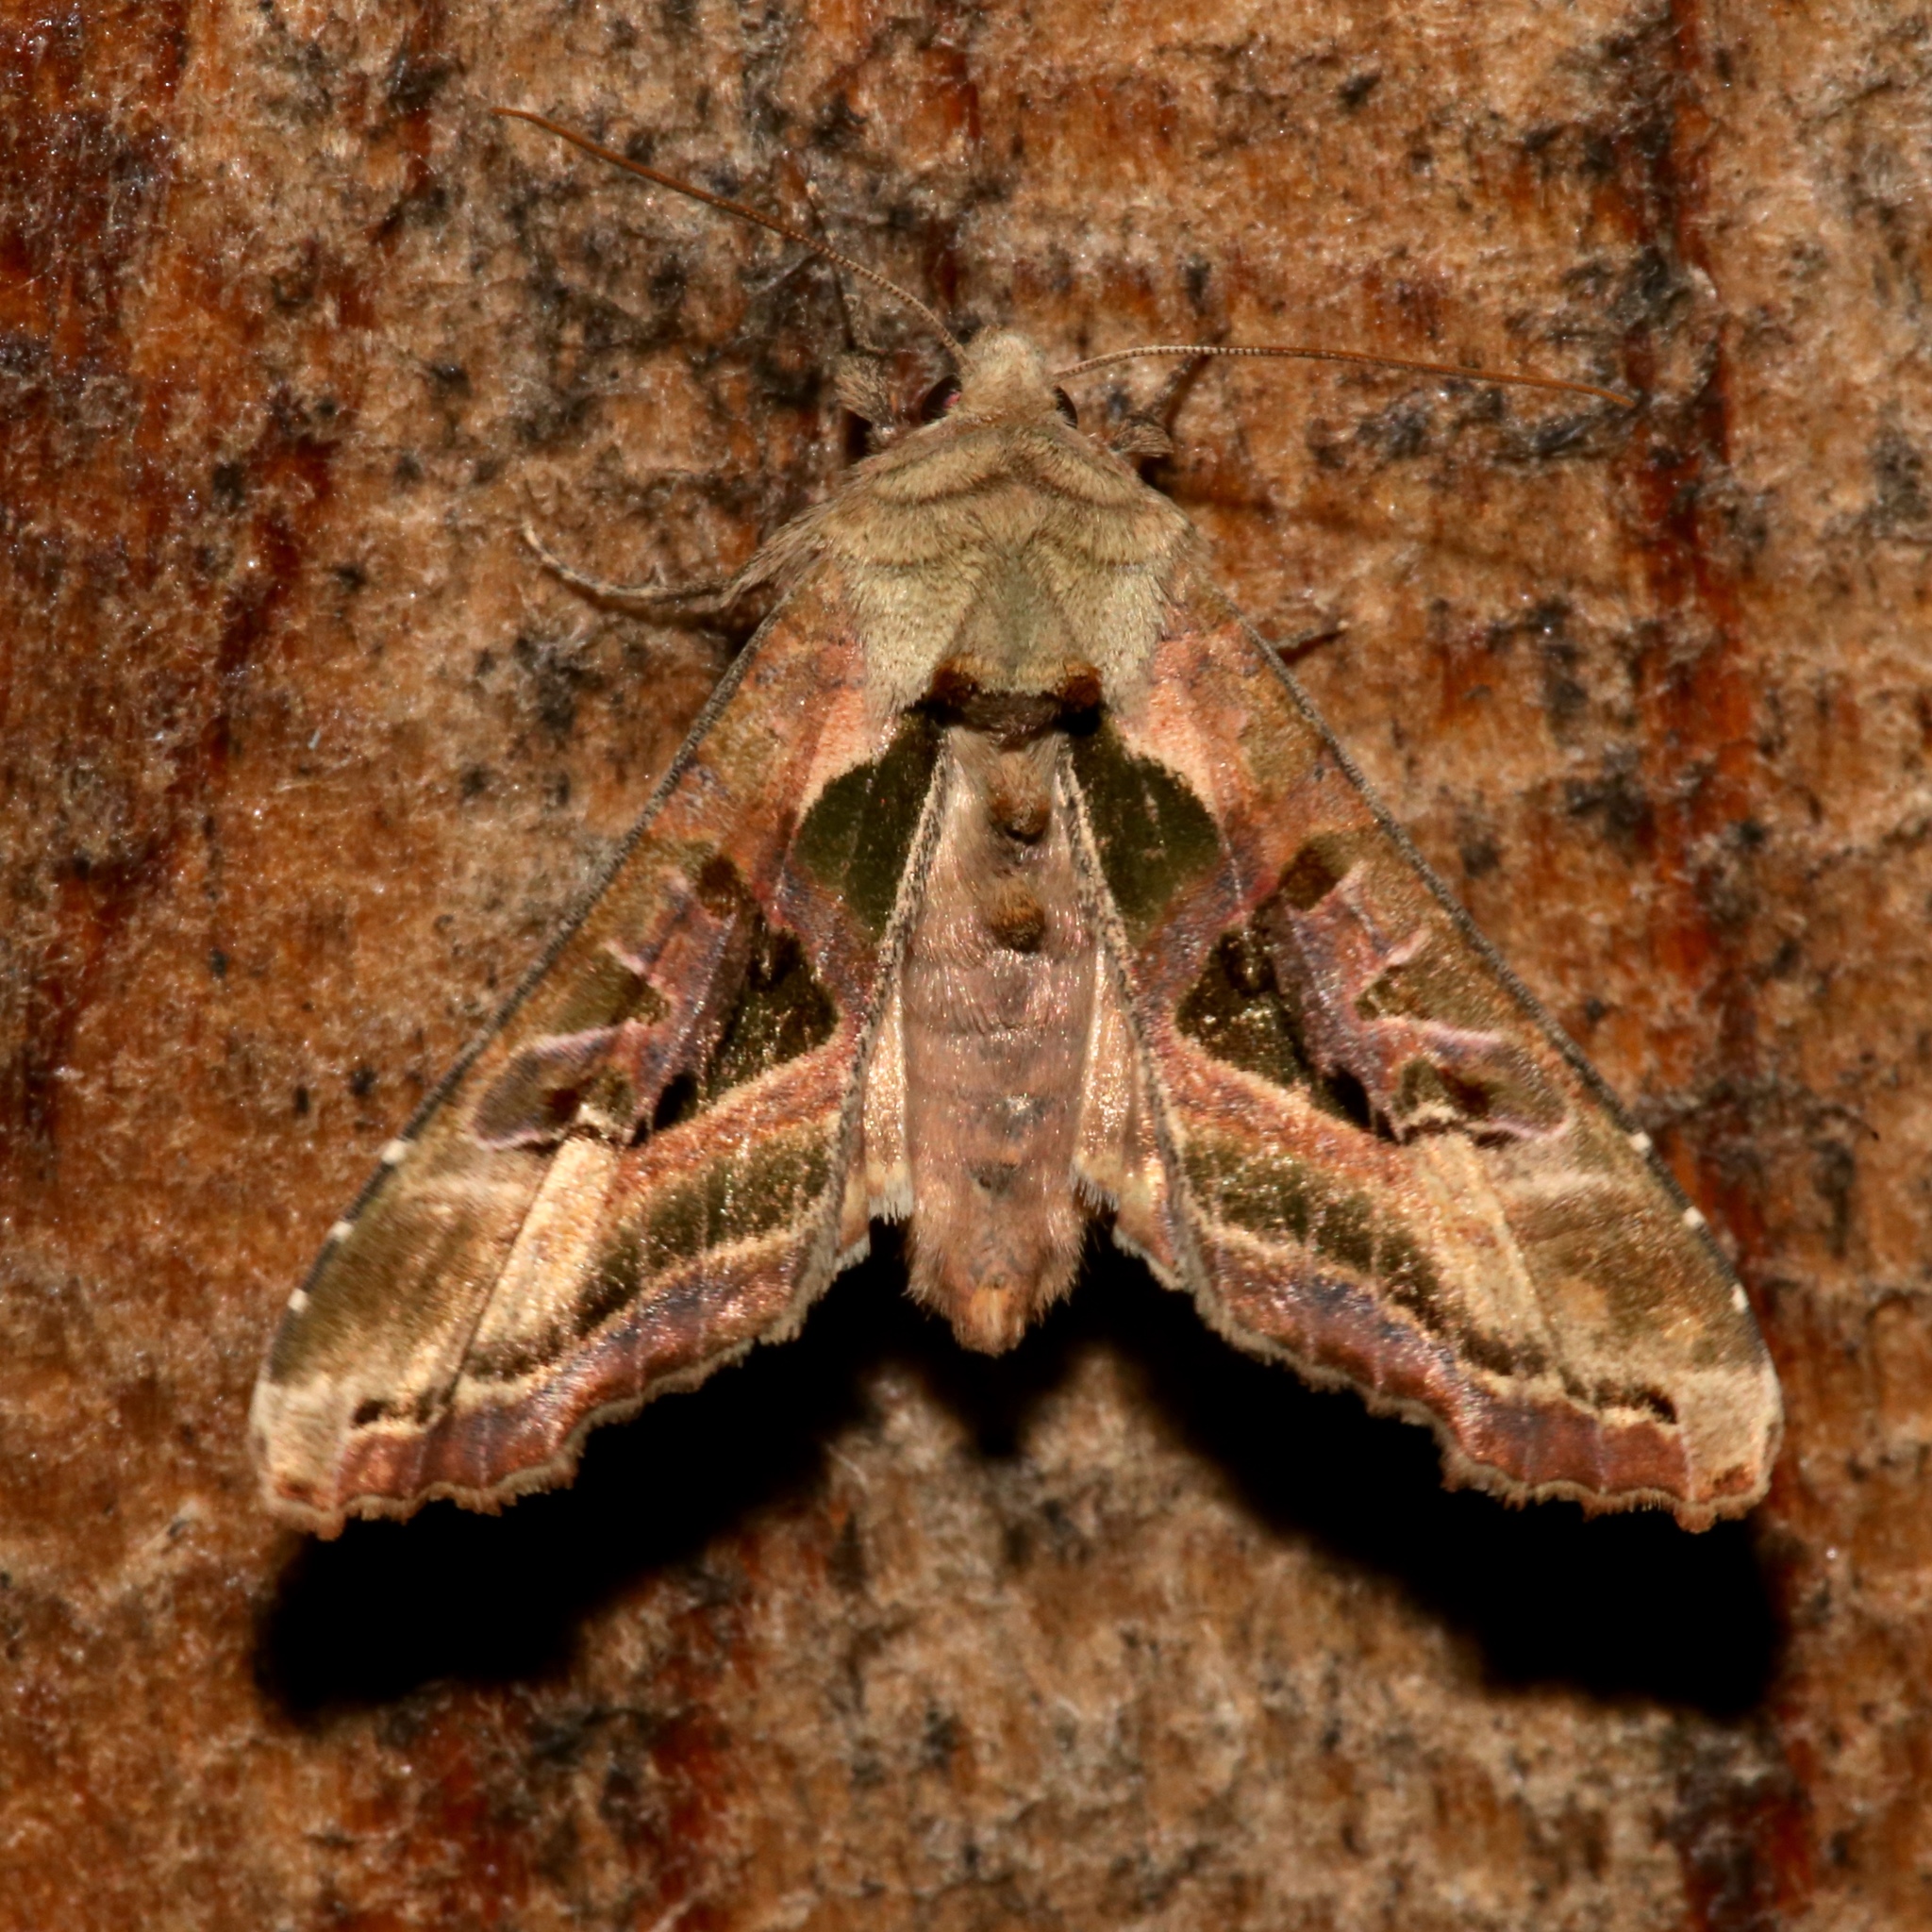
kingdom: Animalia
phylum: Arthropoda
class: Insecta
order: Lepidoptera
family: Noctuidae
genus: Phlogophora
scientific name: Phlogophora iris
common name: Olive angle shades
